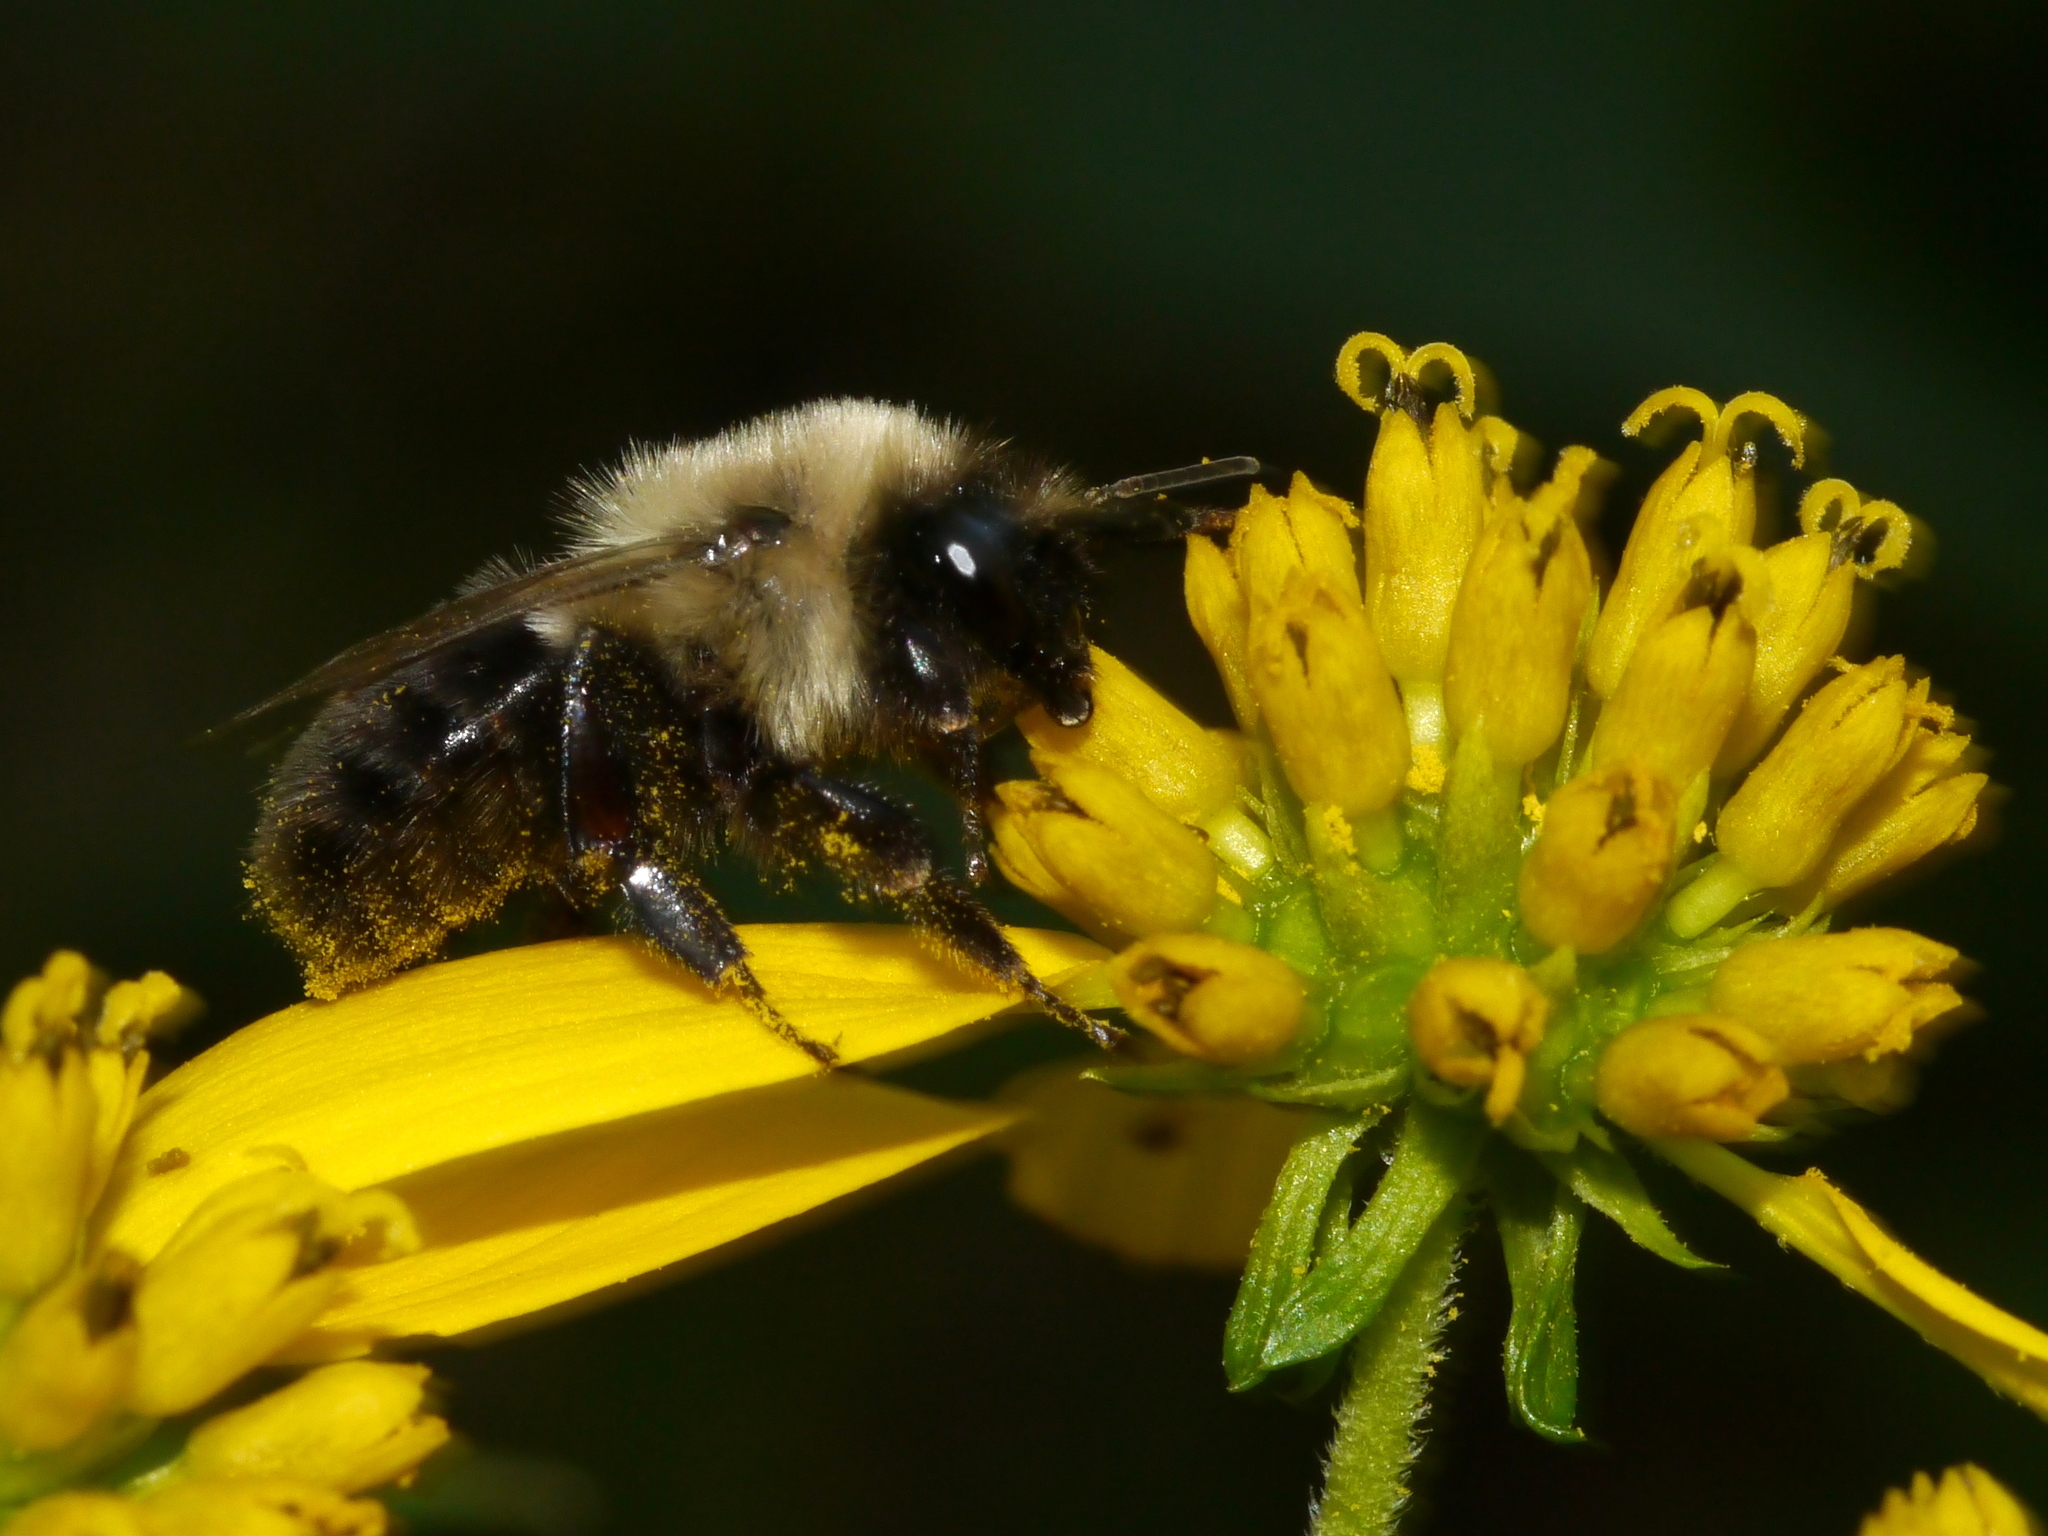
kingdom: Animalia
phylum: Arthropoda
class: Insecta
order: Hymenoptera
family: Apidae
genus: Bombus
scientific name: Bombus impatiens
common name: Common eastern bumble bee
